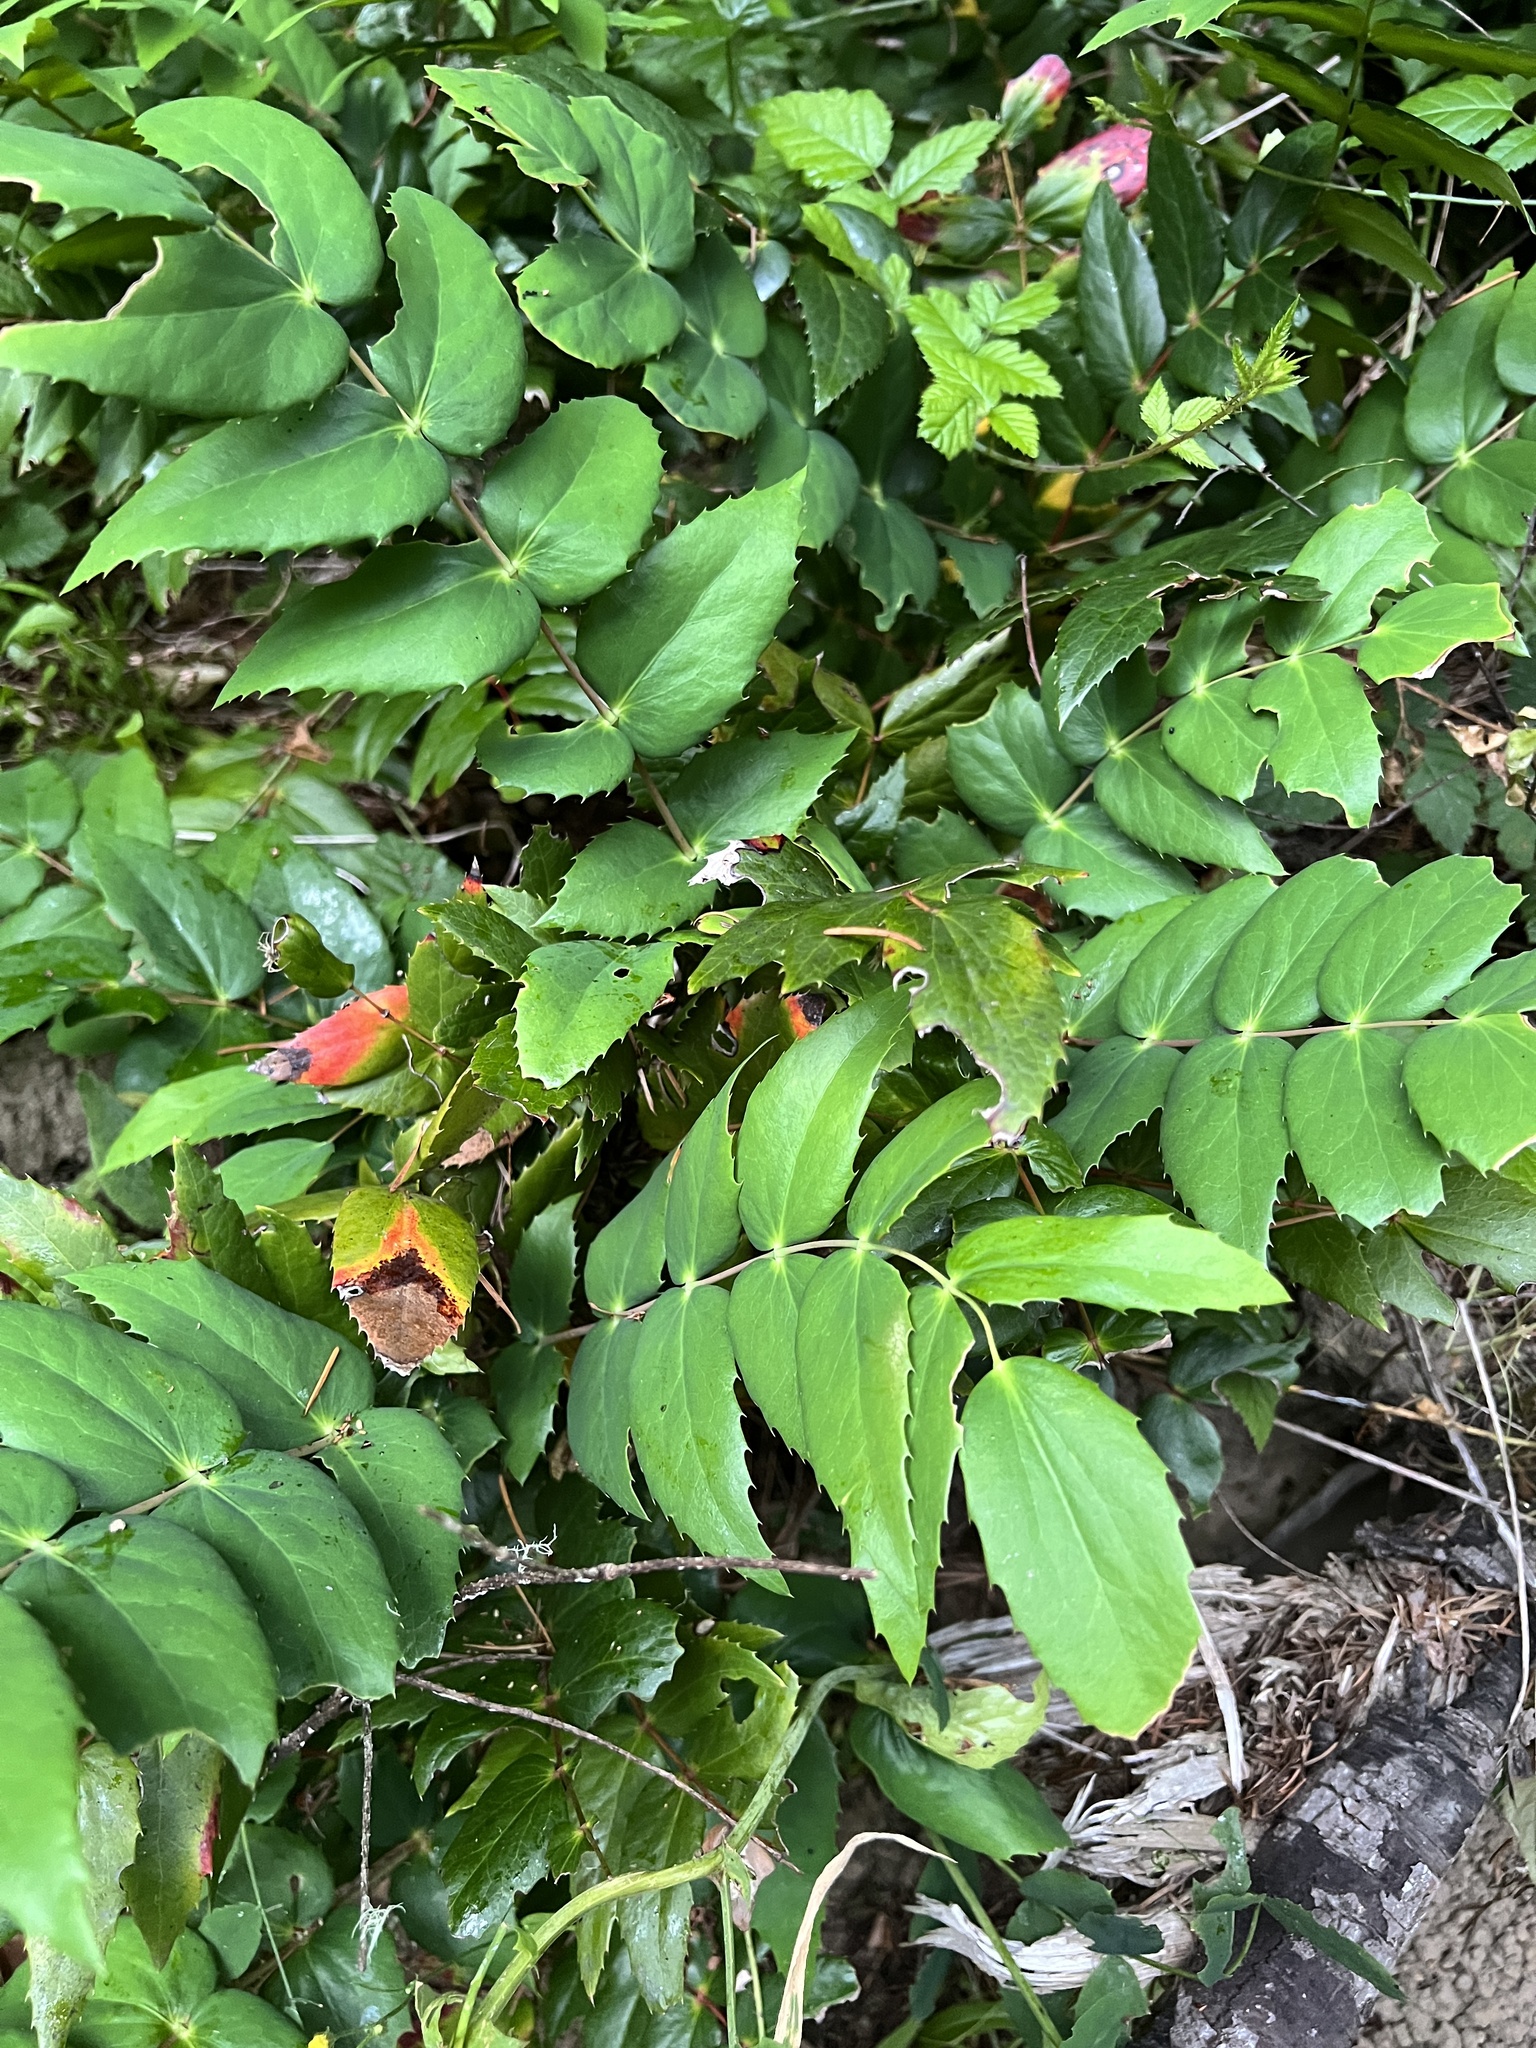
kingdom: Plantae
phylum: Tracheophyta
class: Magnoliopsida
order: Ranunculales
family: Berberidaceae
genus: Mahonia
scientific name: Mahonia nervosa
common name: Cascade oregon-grape
